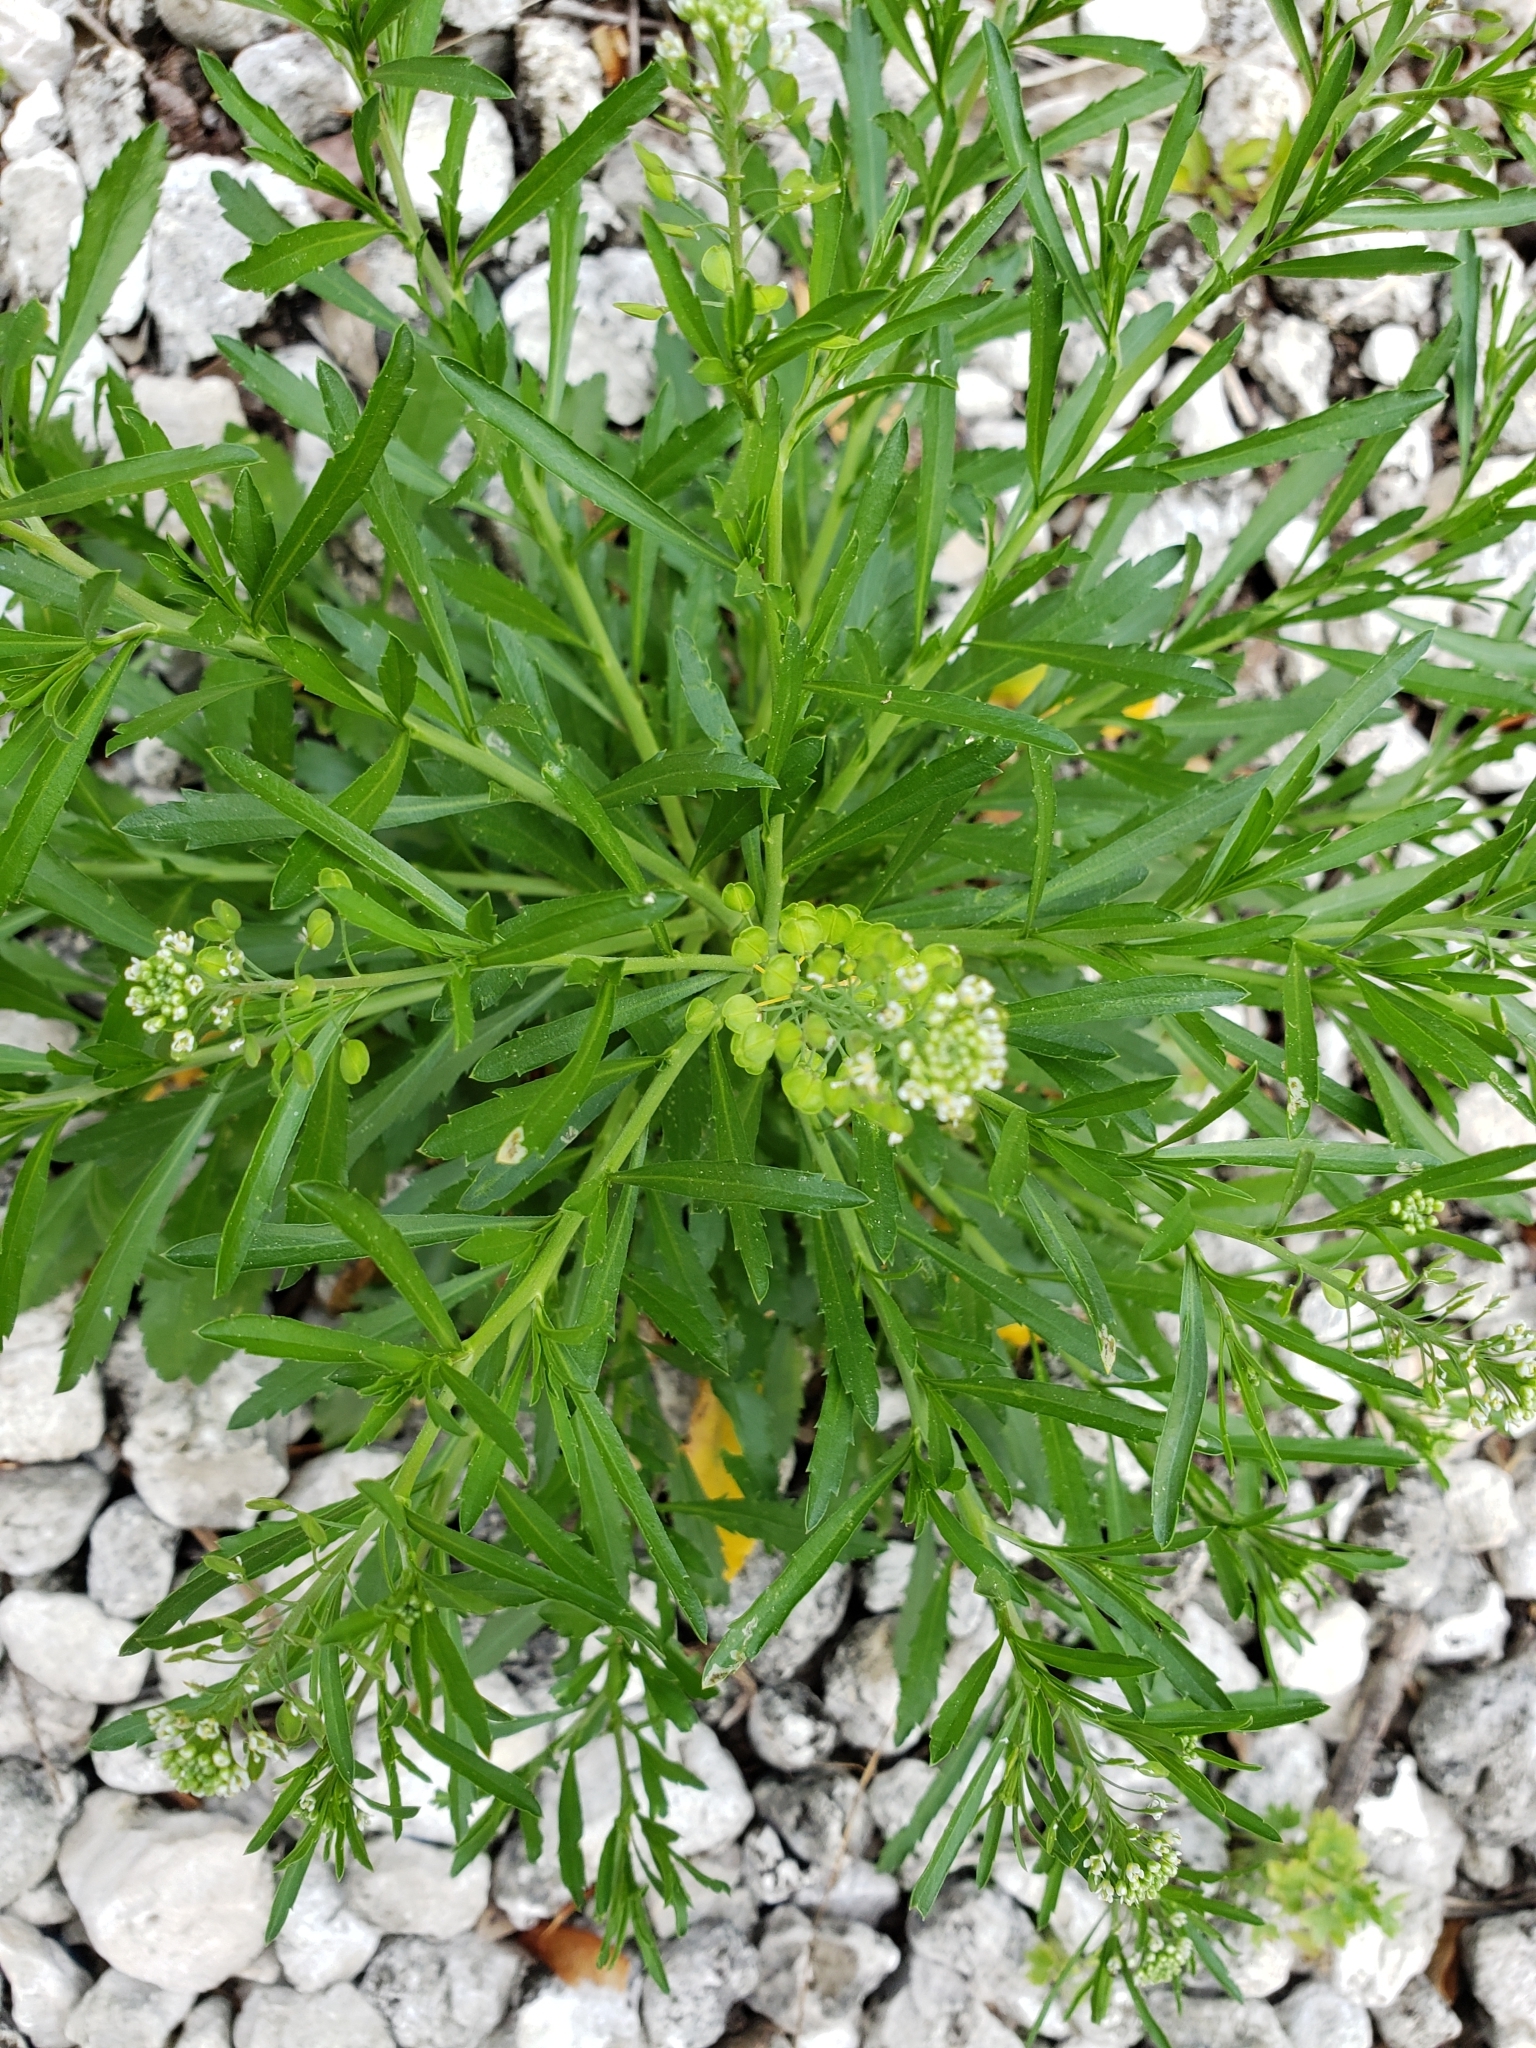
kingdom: Plantae
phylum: Tracheophyta
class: Magnoliopsida
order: Brassicales
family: Brassicaceae
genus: Lepidium
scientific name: Lepidium virginicum
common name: Least pepperwort
